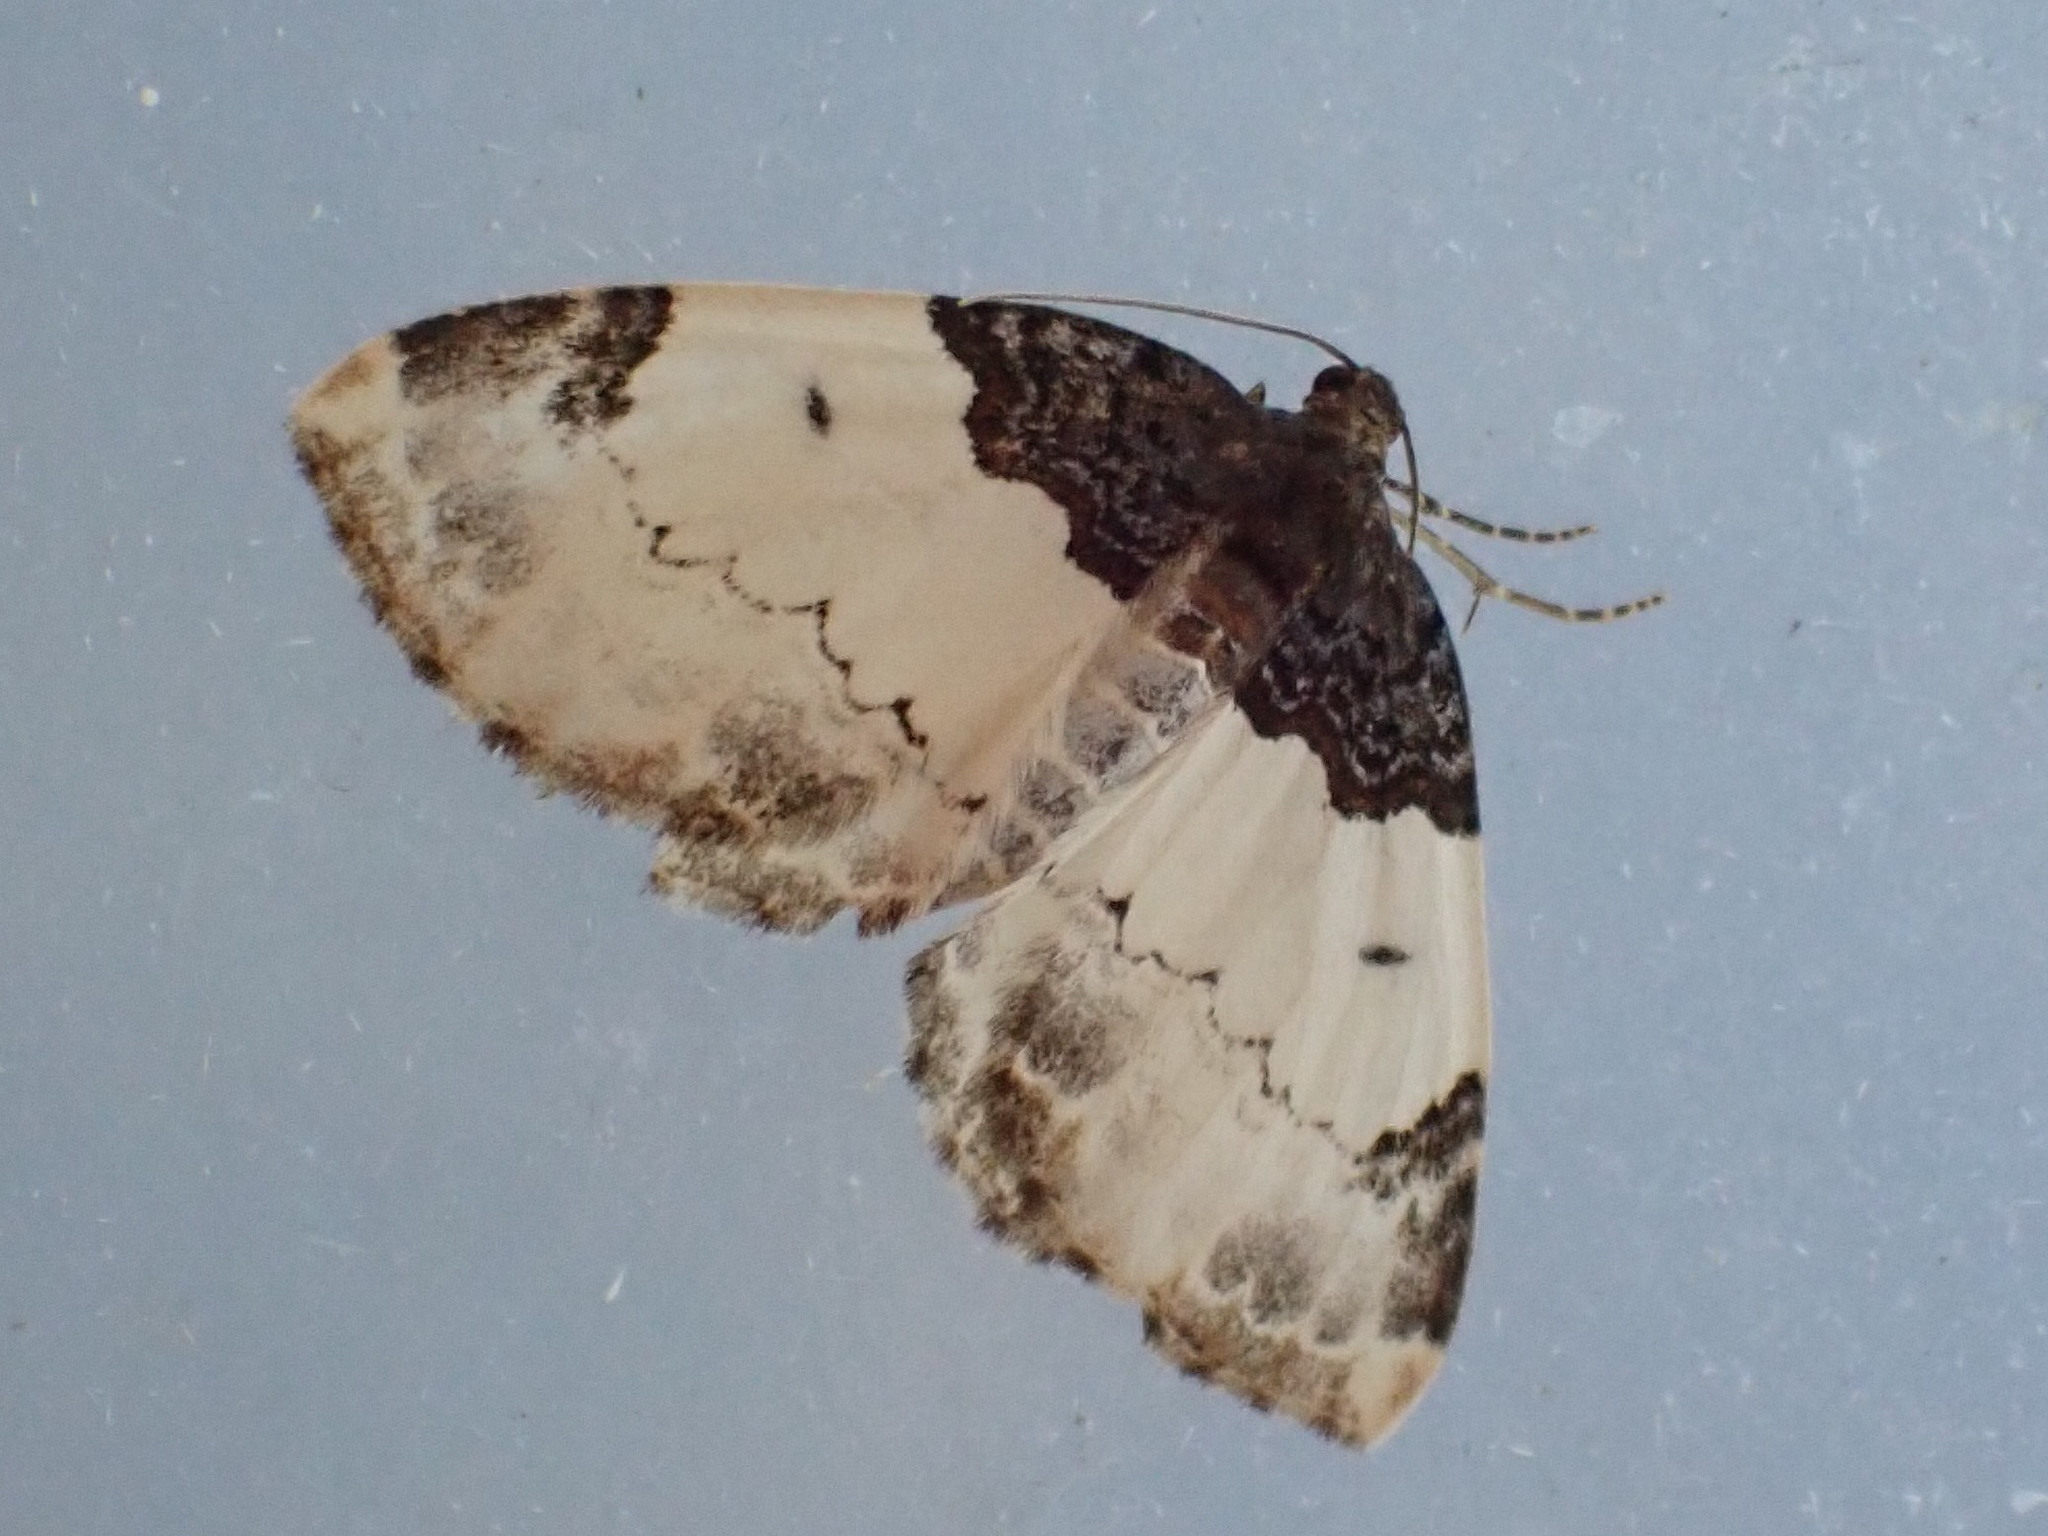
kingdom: Animalia
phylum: Arthropoda
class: Insecta
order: Lepidoptera
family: Geometridae
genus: Mesoleuca
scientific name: Mesoleuca ruficillata
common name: White-ribboned carpet moth
